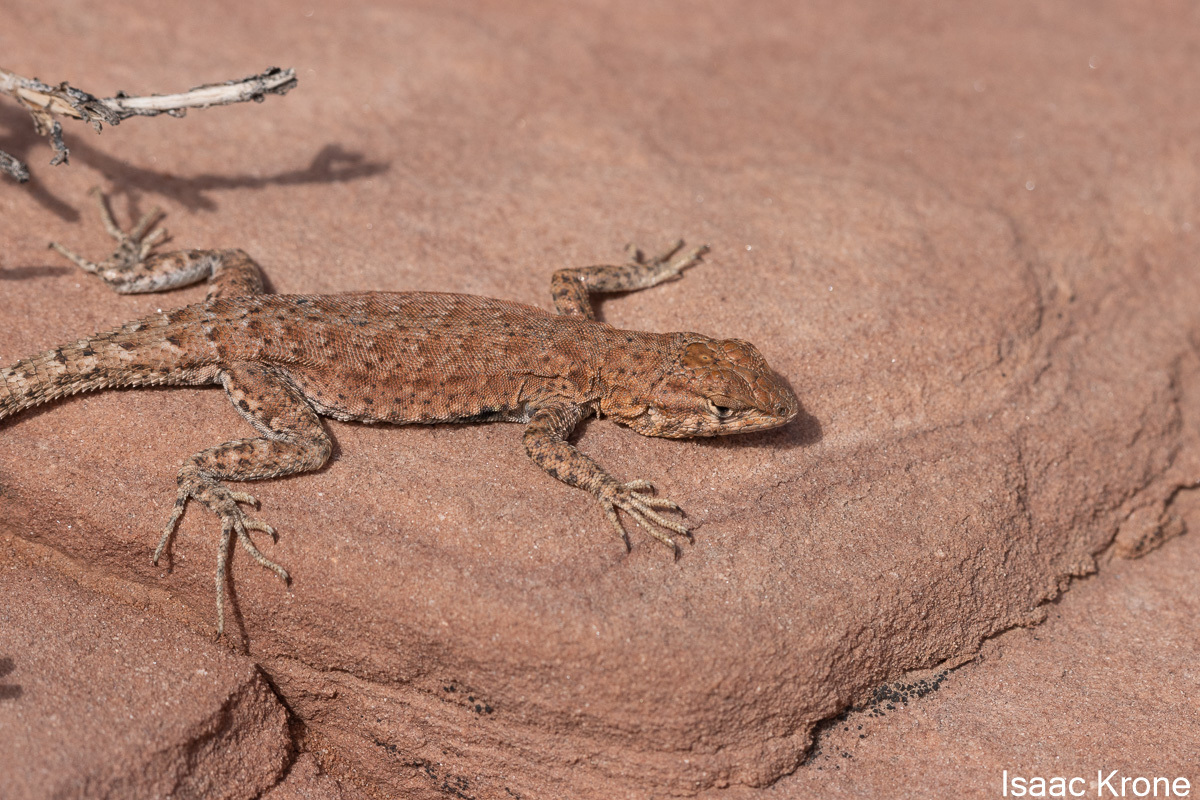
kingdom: Animalia
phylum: Chordata
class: Squamata
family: Phrynosomatidae
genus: Uta
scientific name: Uta stansburiana
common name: Side-blotched lizard
